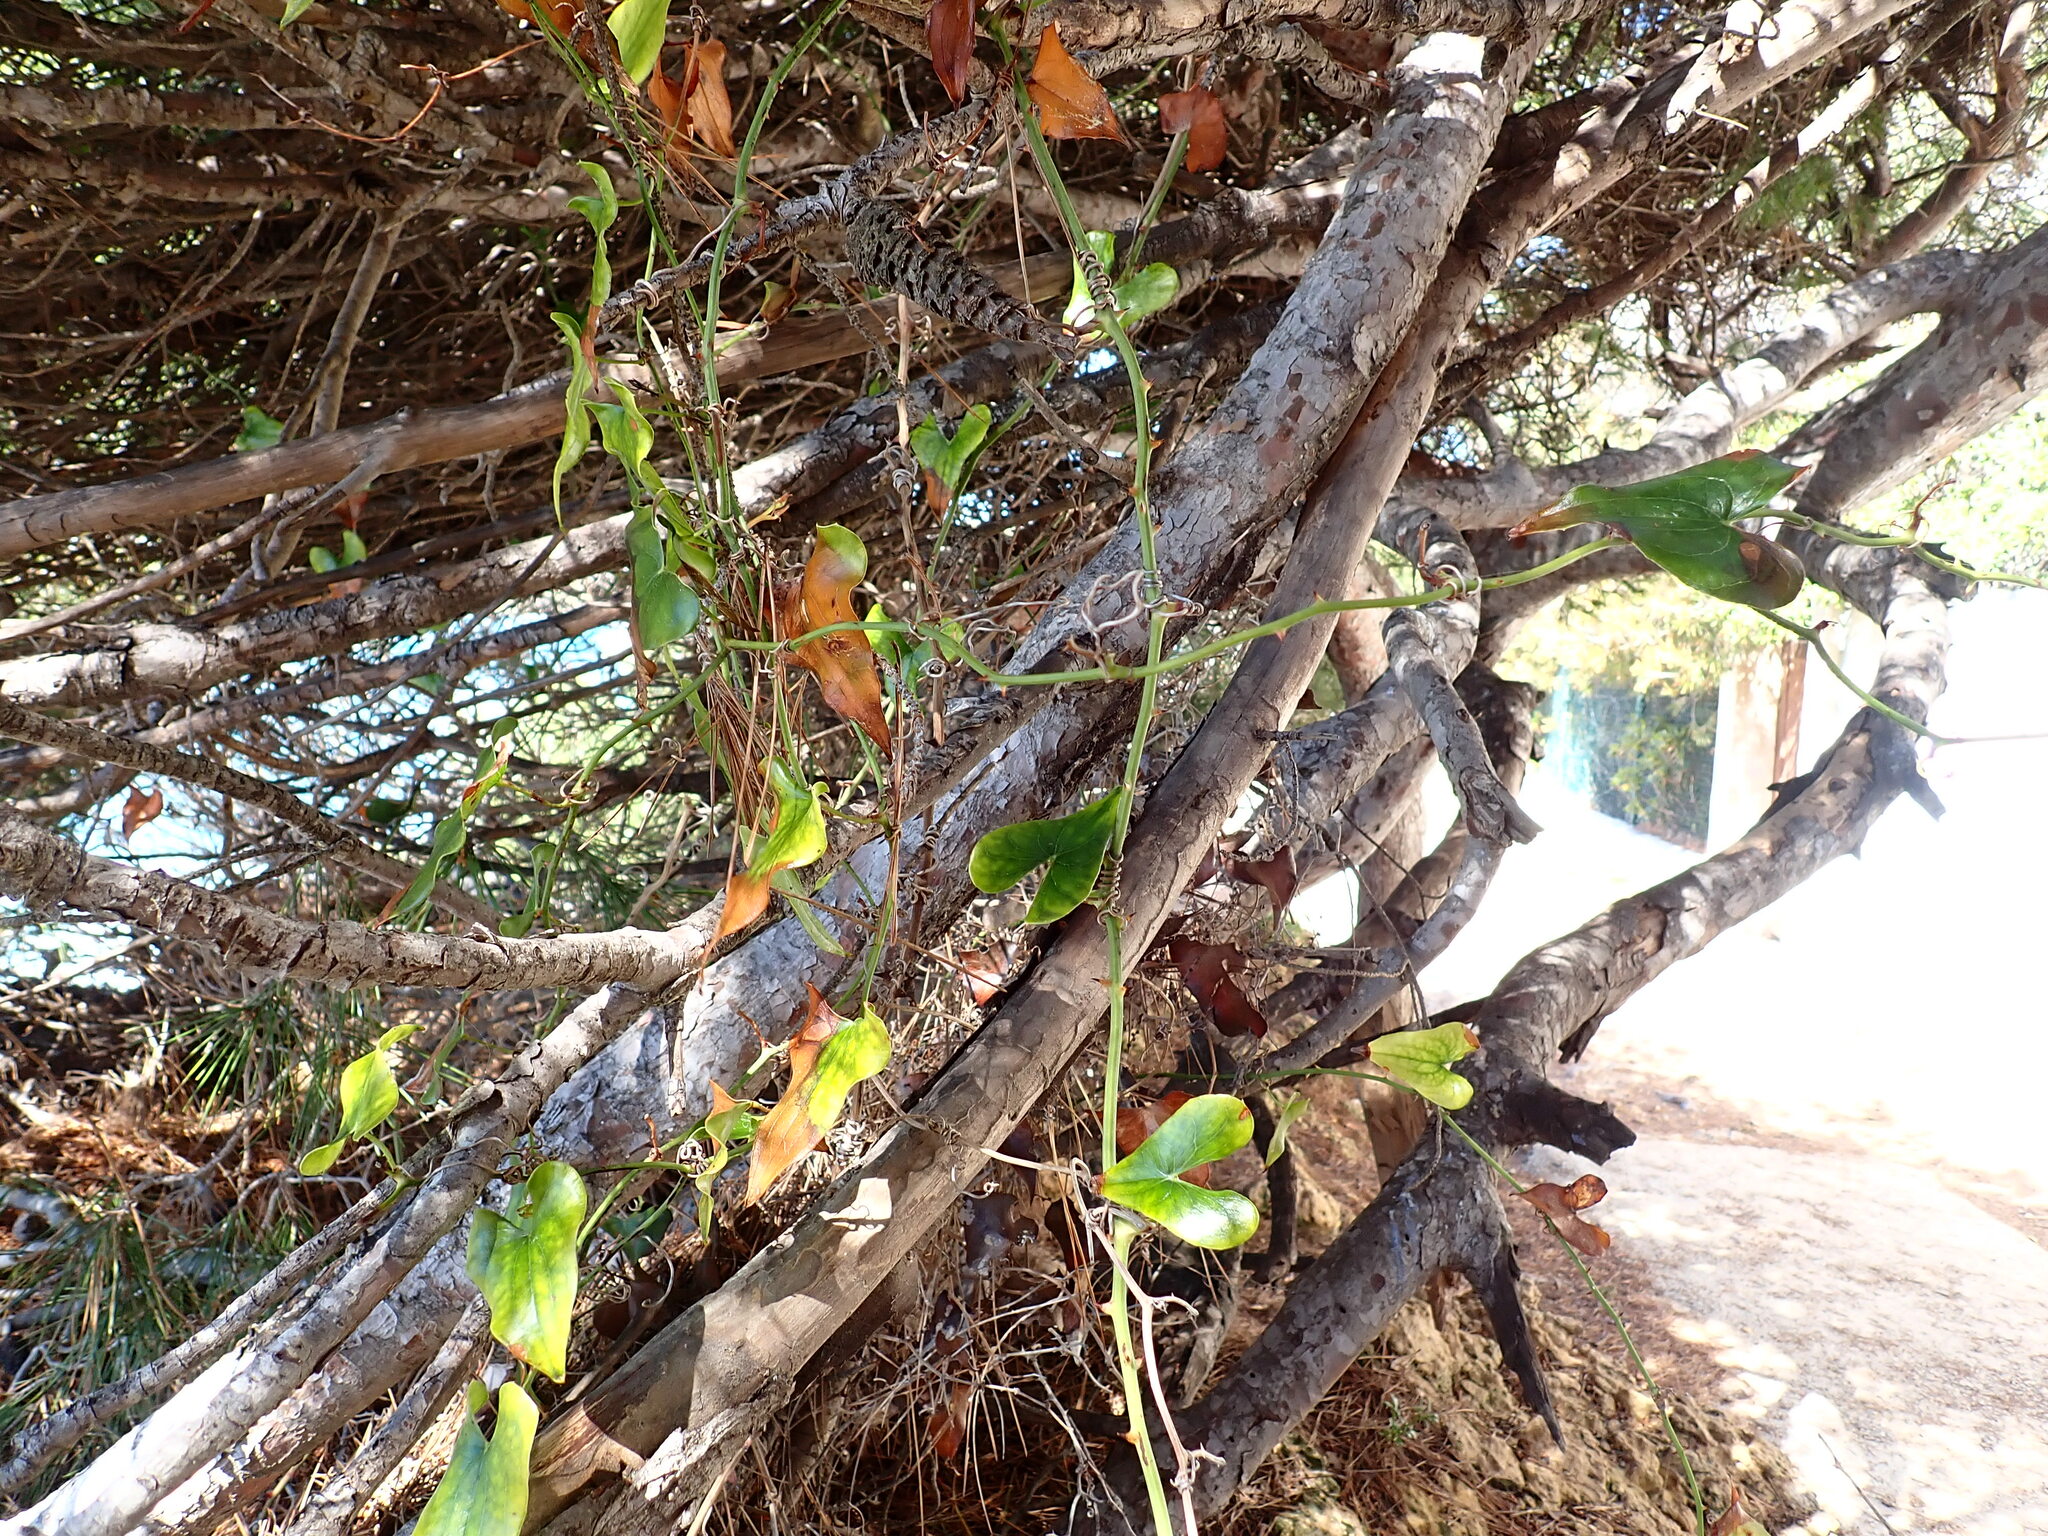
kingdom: Plantae
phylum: Tracheophyta
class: Liliopsida
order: Liliales
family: Smilacaceae
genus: Smilax
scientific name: Smilax aspera
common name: Common smilax
